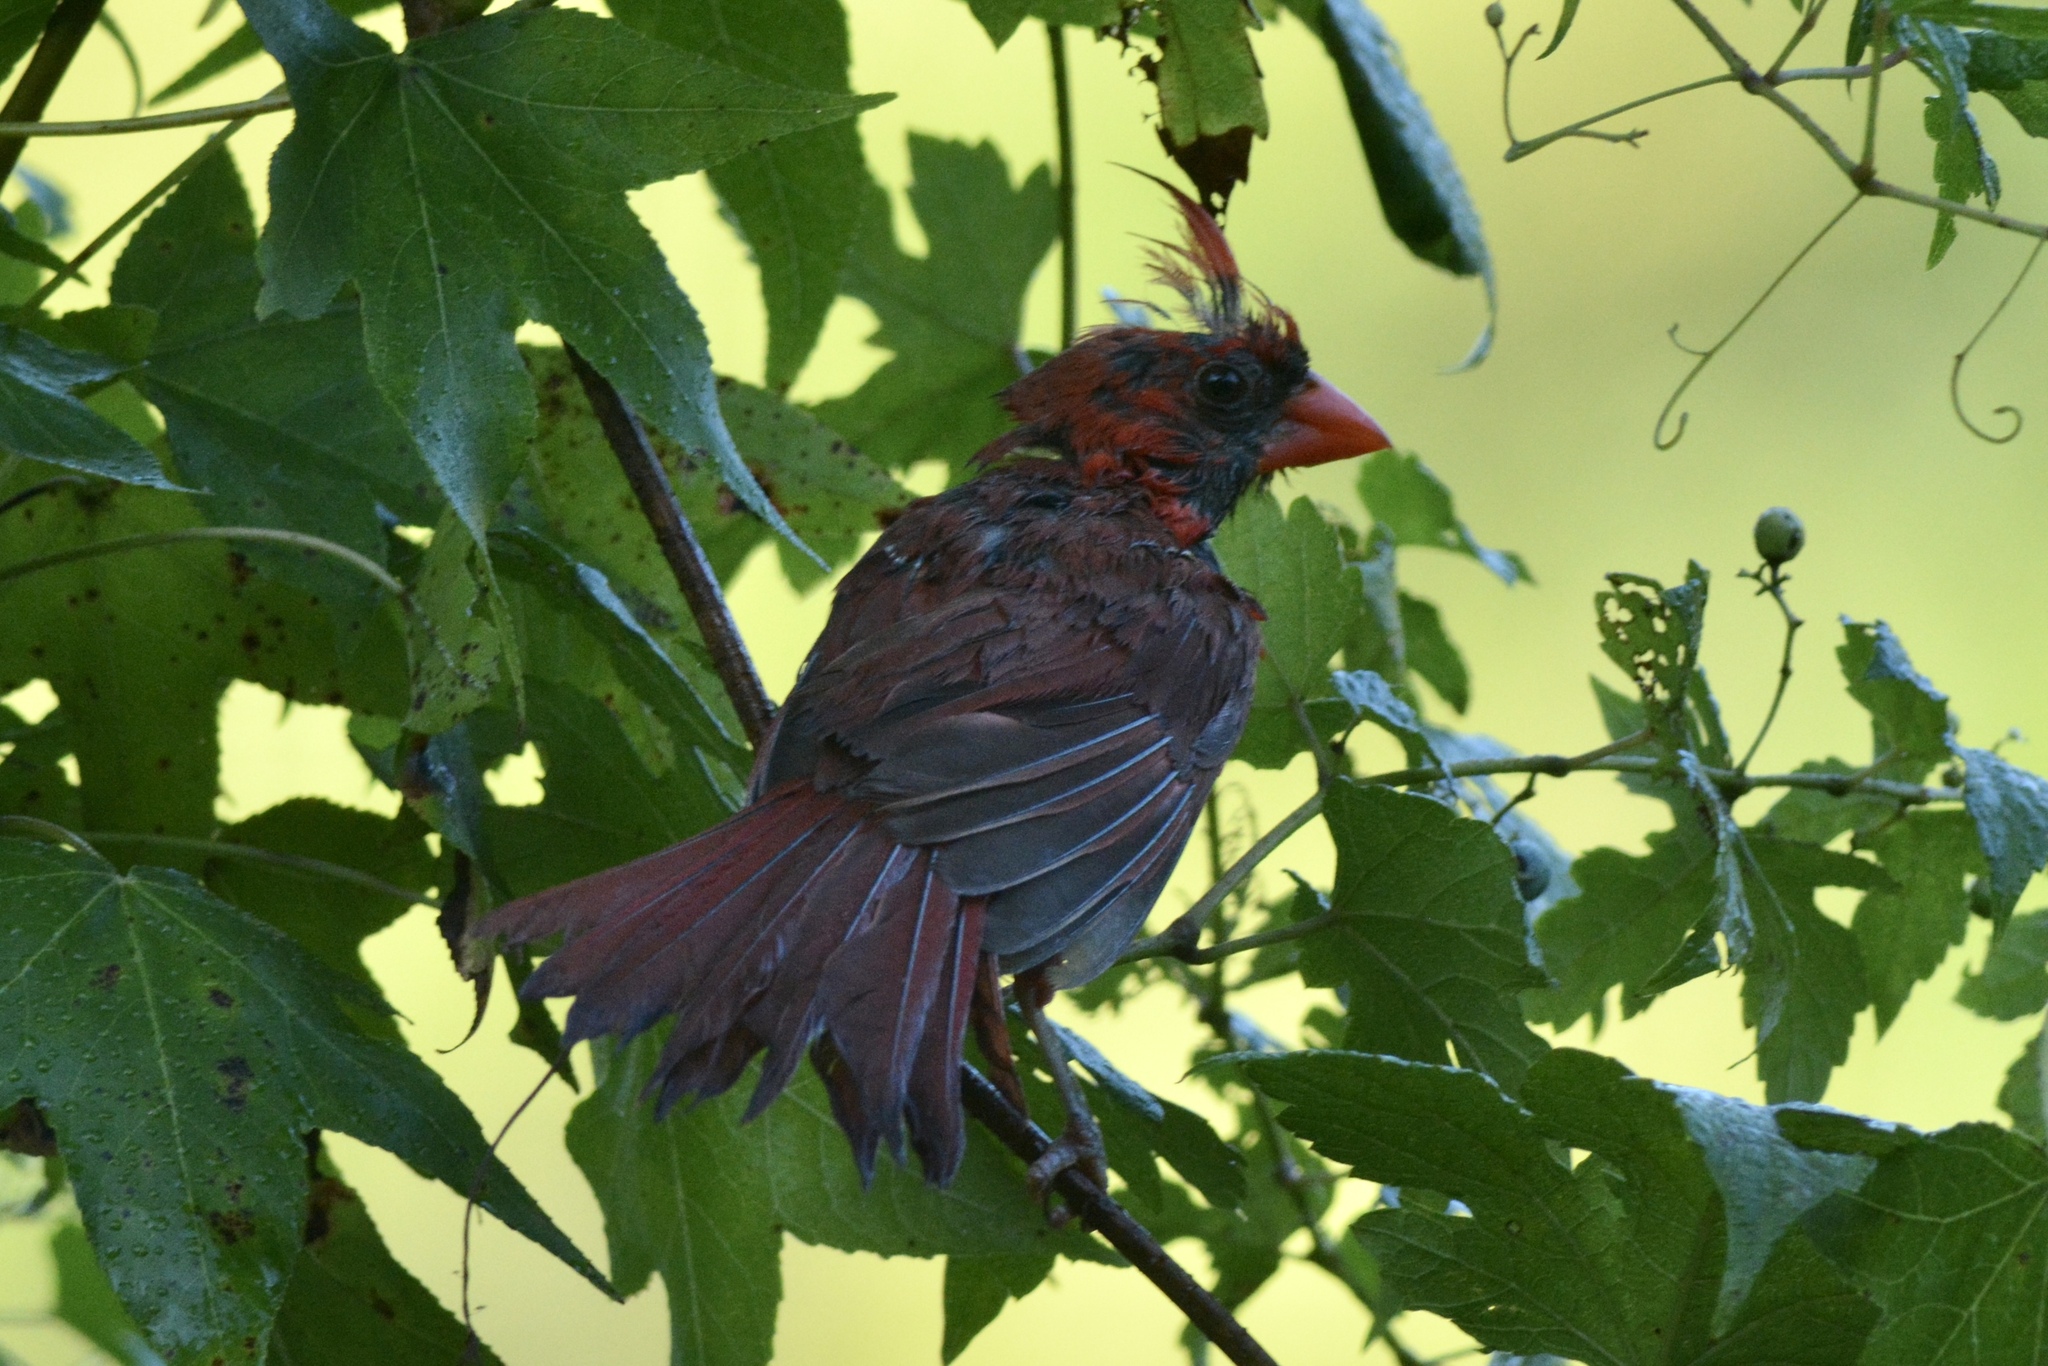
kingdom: Animalia
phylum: Chordata
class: Aves
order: Passeriformes
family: Cardinalidae
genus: Cardinalis
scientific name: Cardinalis cardinalis
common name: Northern cardinal
